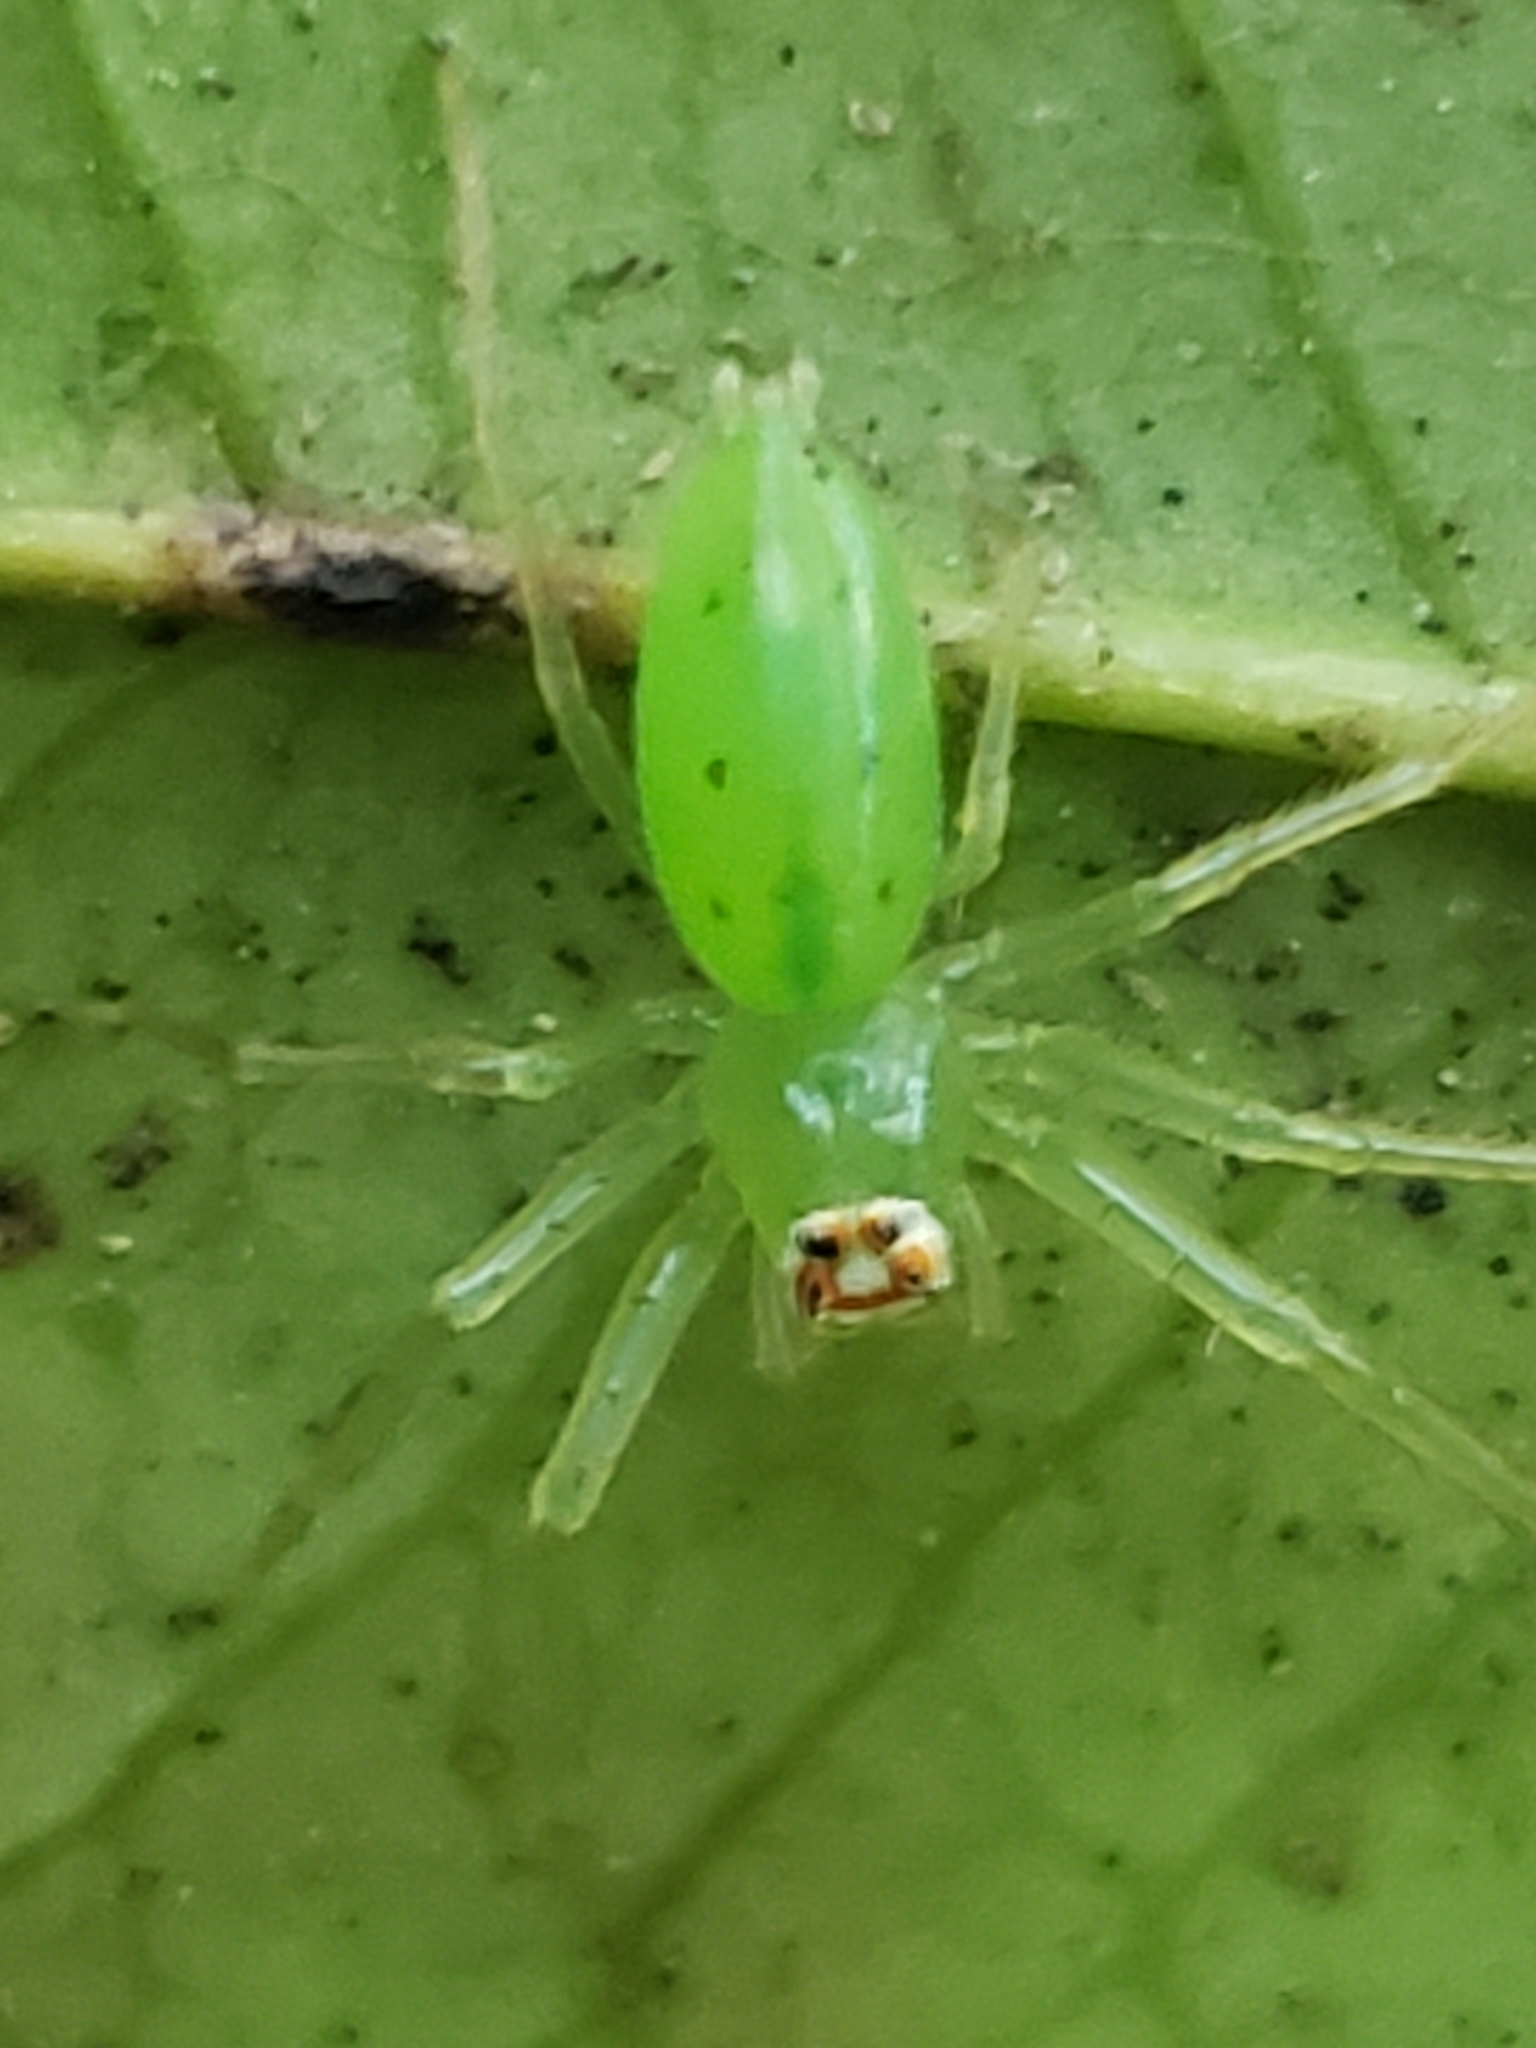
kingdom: Animalia
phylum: Arthropoda
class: Arachnida
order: Araneae
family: Salticidae
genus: Lyssomanes
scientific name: Lyssomanes viridis
